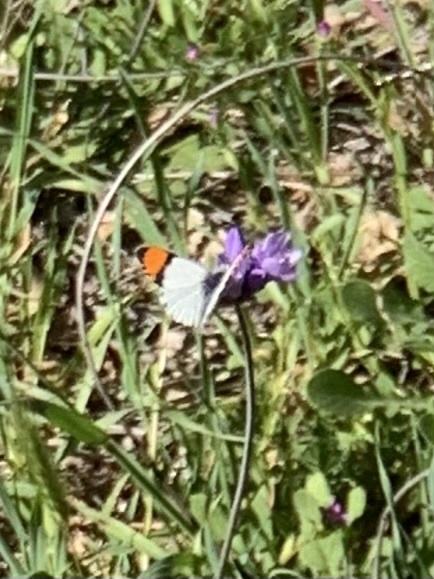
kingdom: Animalia
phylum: Arthropoda
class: Insecta
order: Lepidoptera
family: Pieridae
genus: Anthocharis
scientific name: Anthocharis sara
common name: Sara's orangetip
